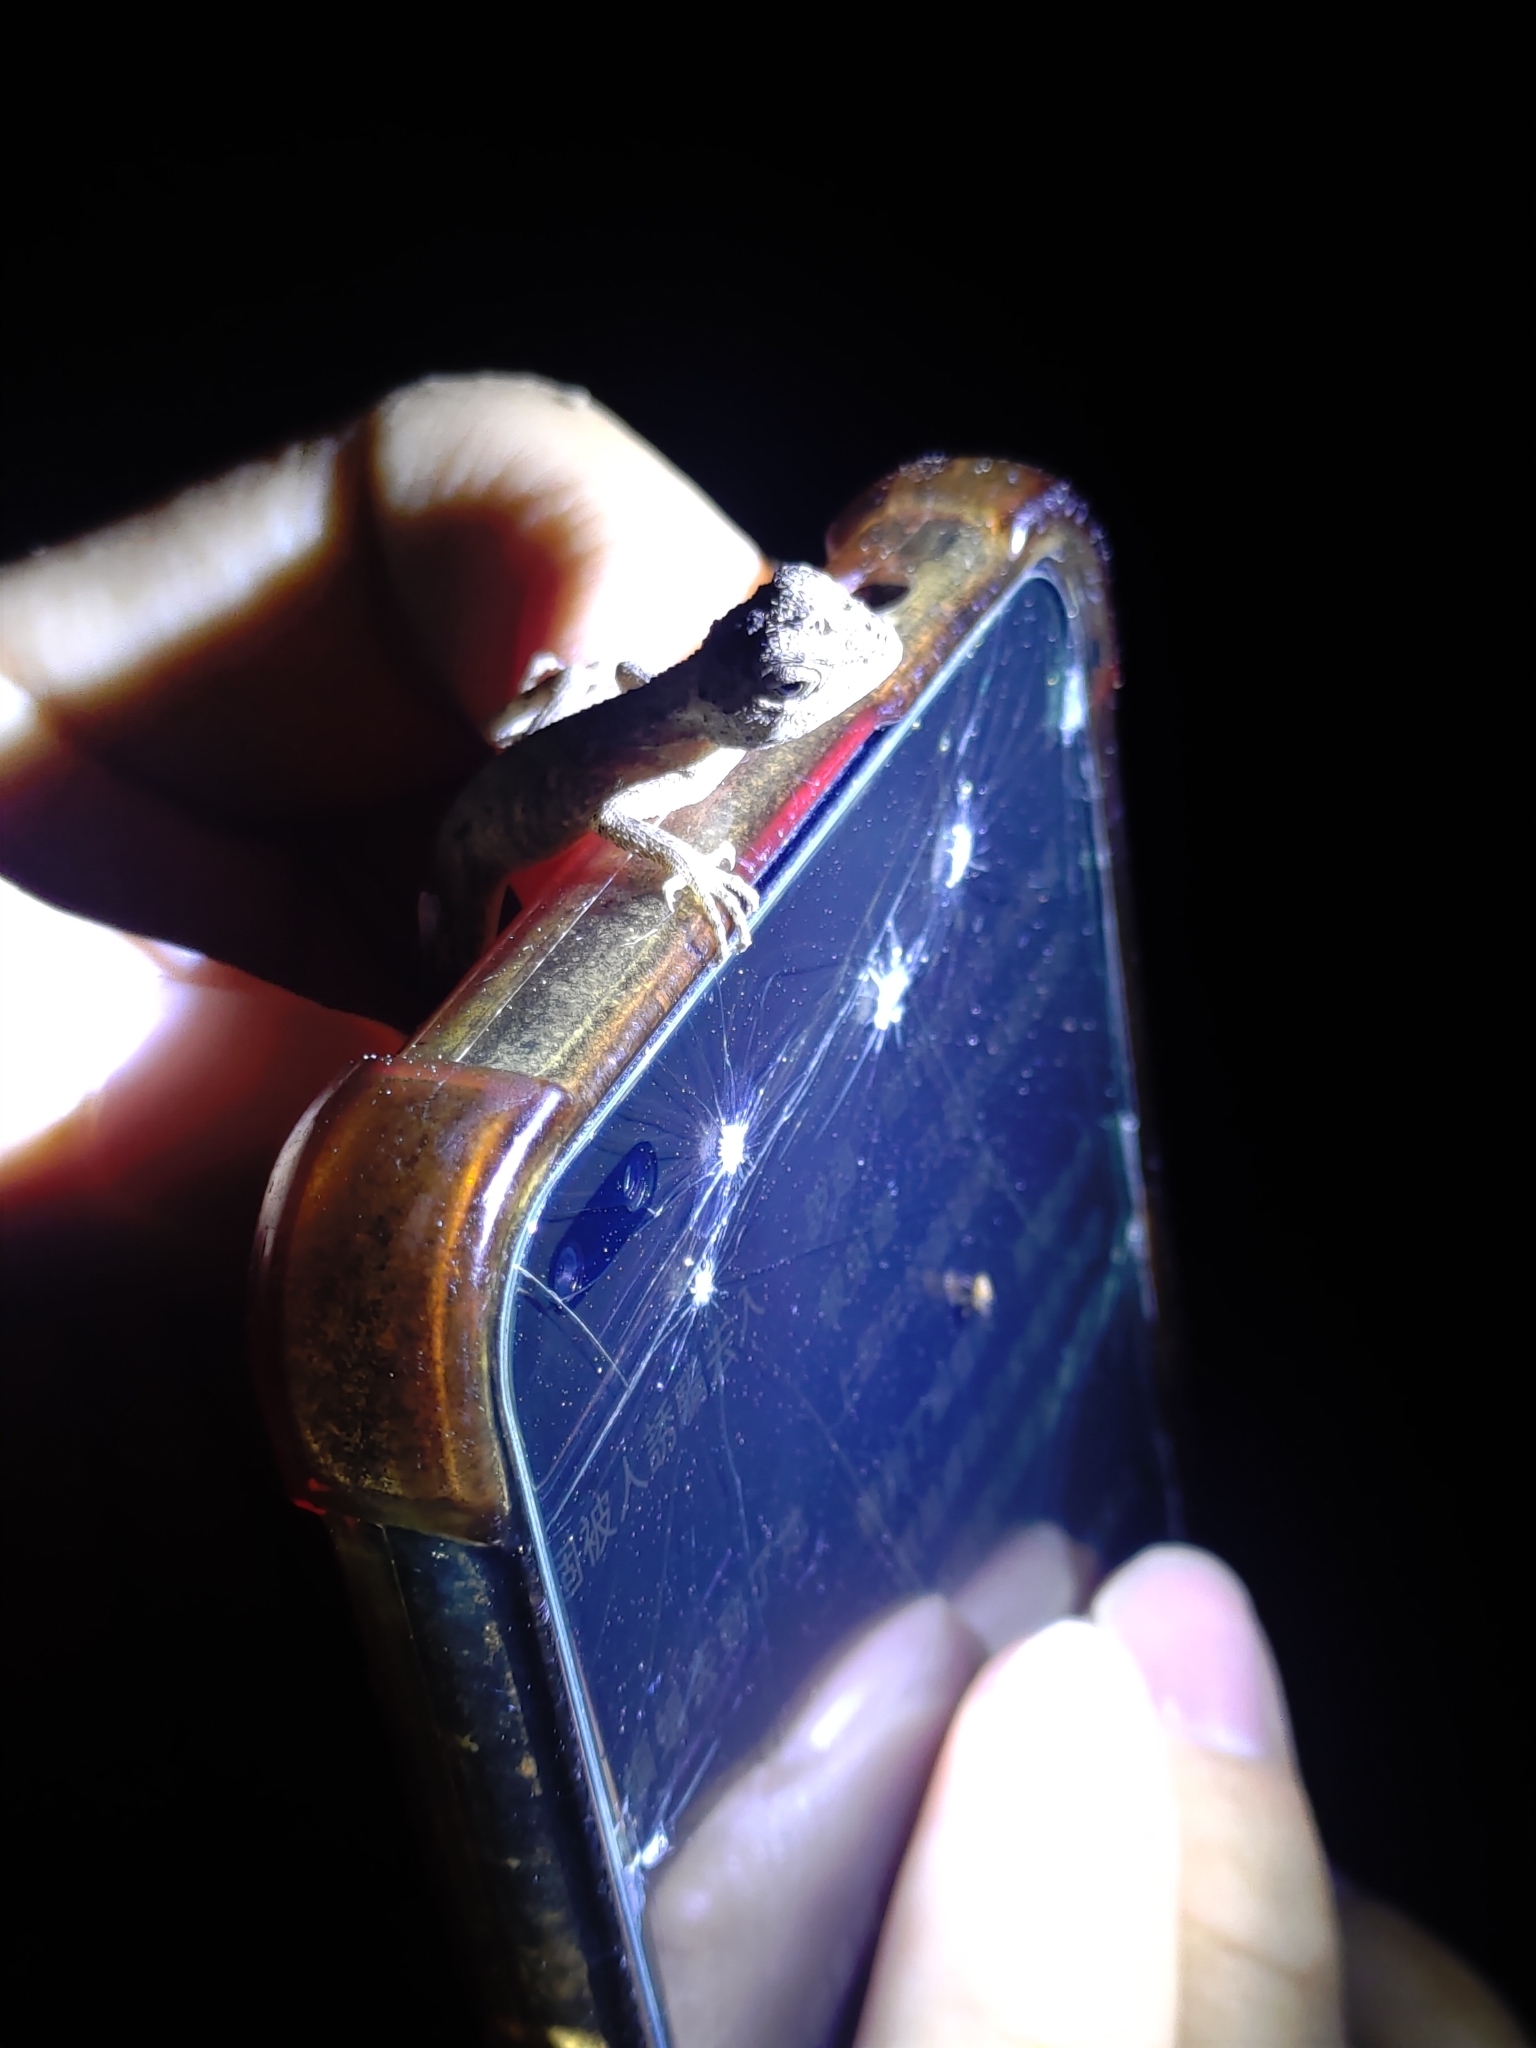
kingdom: Animalia
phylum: Chordata
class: Squamata
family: Agamidae
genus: Diploderma
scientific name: Diploderma swinhonis
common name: Taiwan japalure
